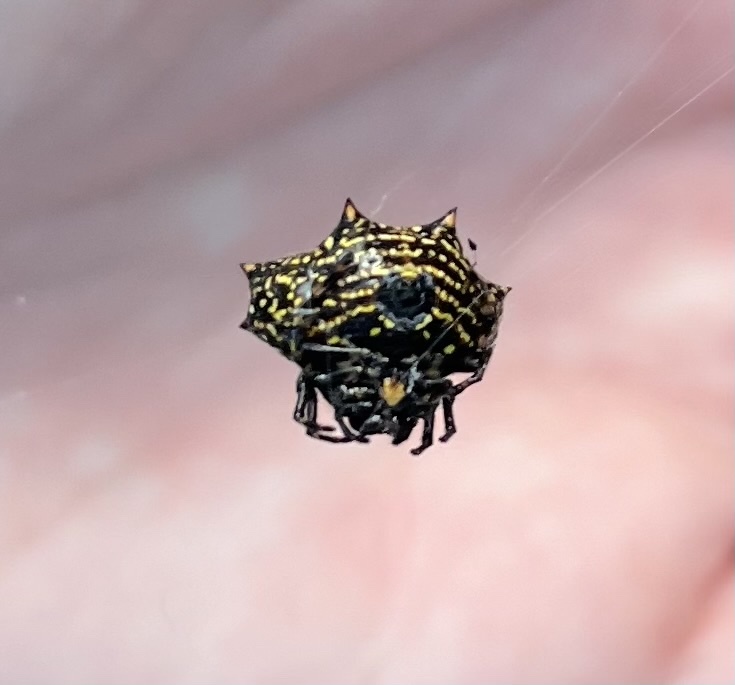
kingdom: Animalia
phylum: Arthropoda
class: Arachnida
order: Araneae
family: Araneidae
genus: Gasteracantha
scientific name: Gasteracantha cancriformis
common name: Orb weavers
